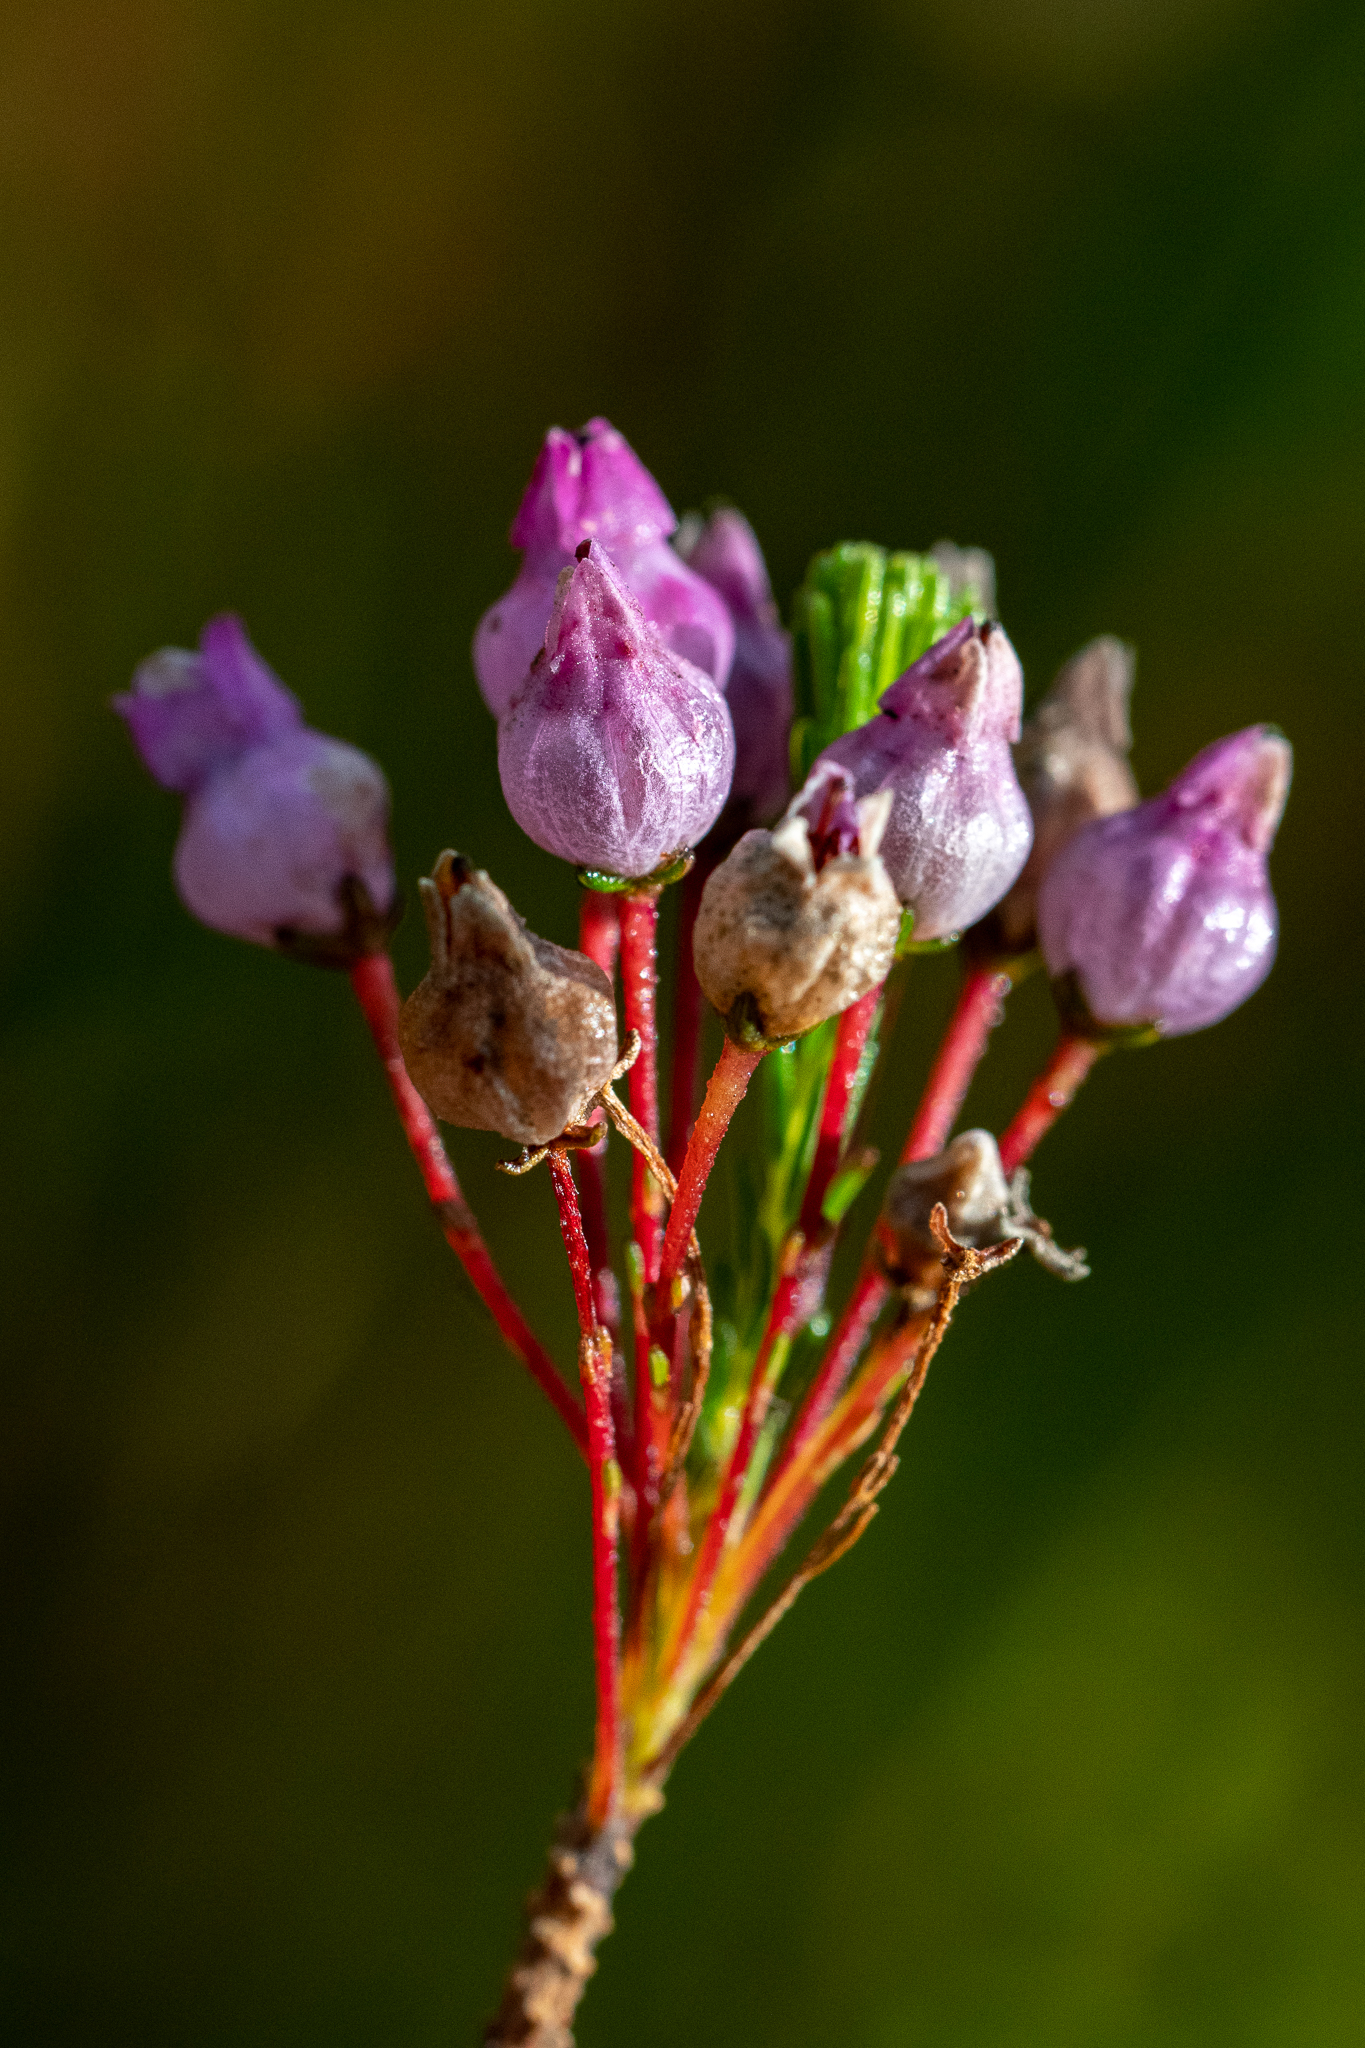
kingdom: Plantae
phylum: Tracheophyta
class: Magnoliopsida
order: Ericales
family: Ericaceae
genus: Erica
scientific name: Erica obliqua
